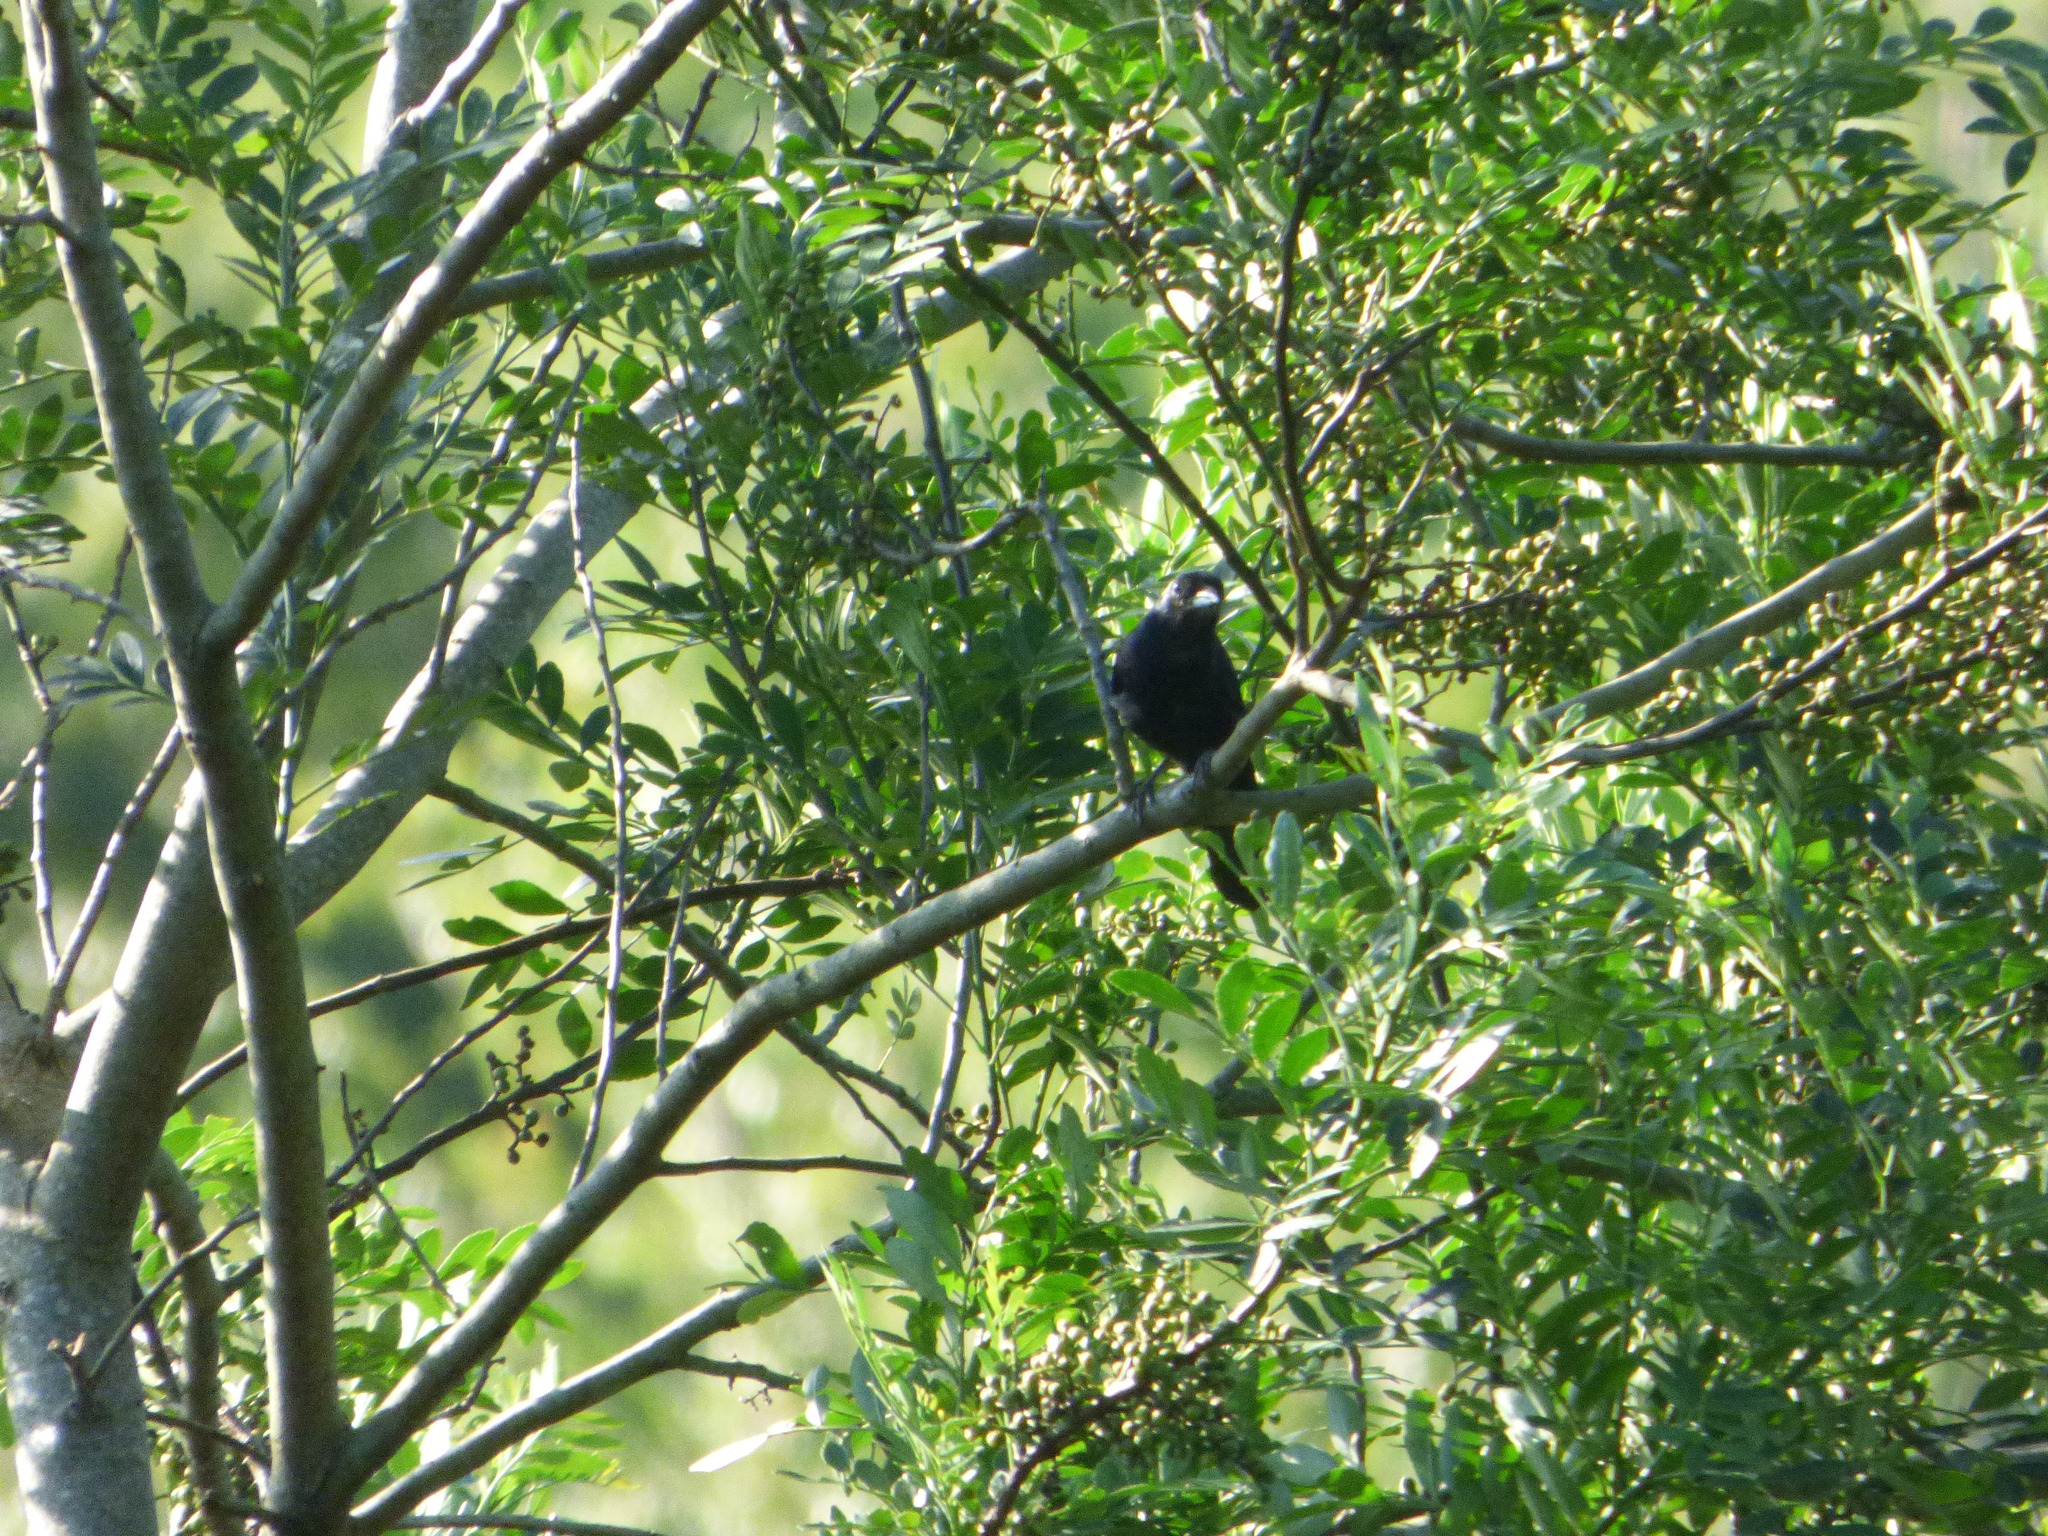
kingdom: Animalia
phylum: Chordata
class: Aves
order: Passeriformes
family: Thraupidae
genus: Tachyphonus
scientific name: Tachyphonus coronatus
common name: Ruby-crowned tanager
